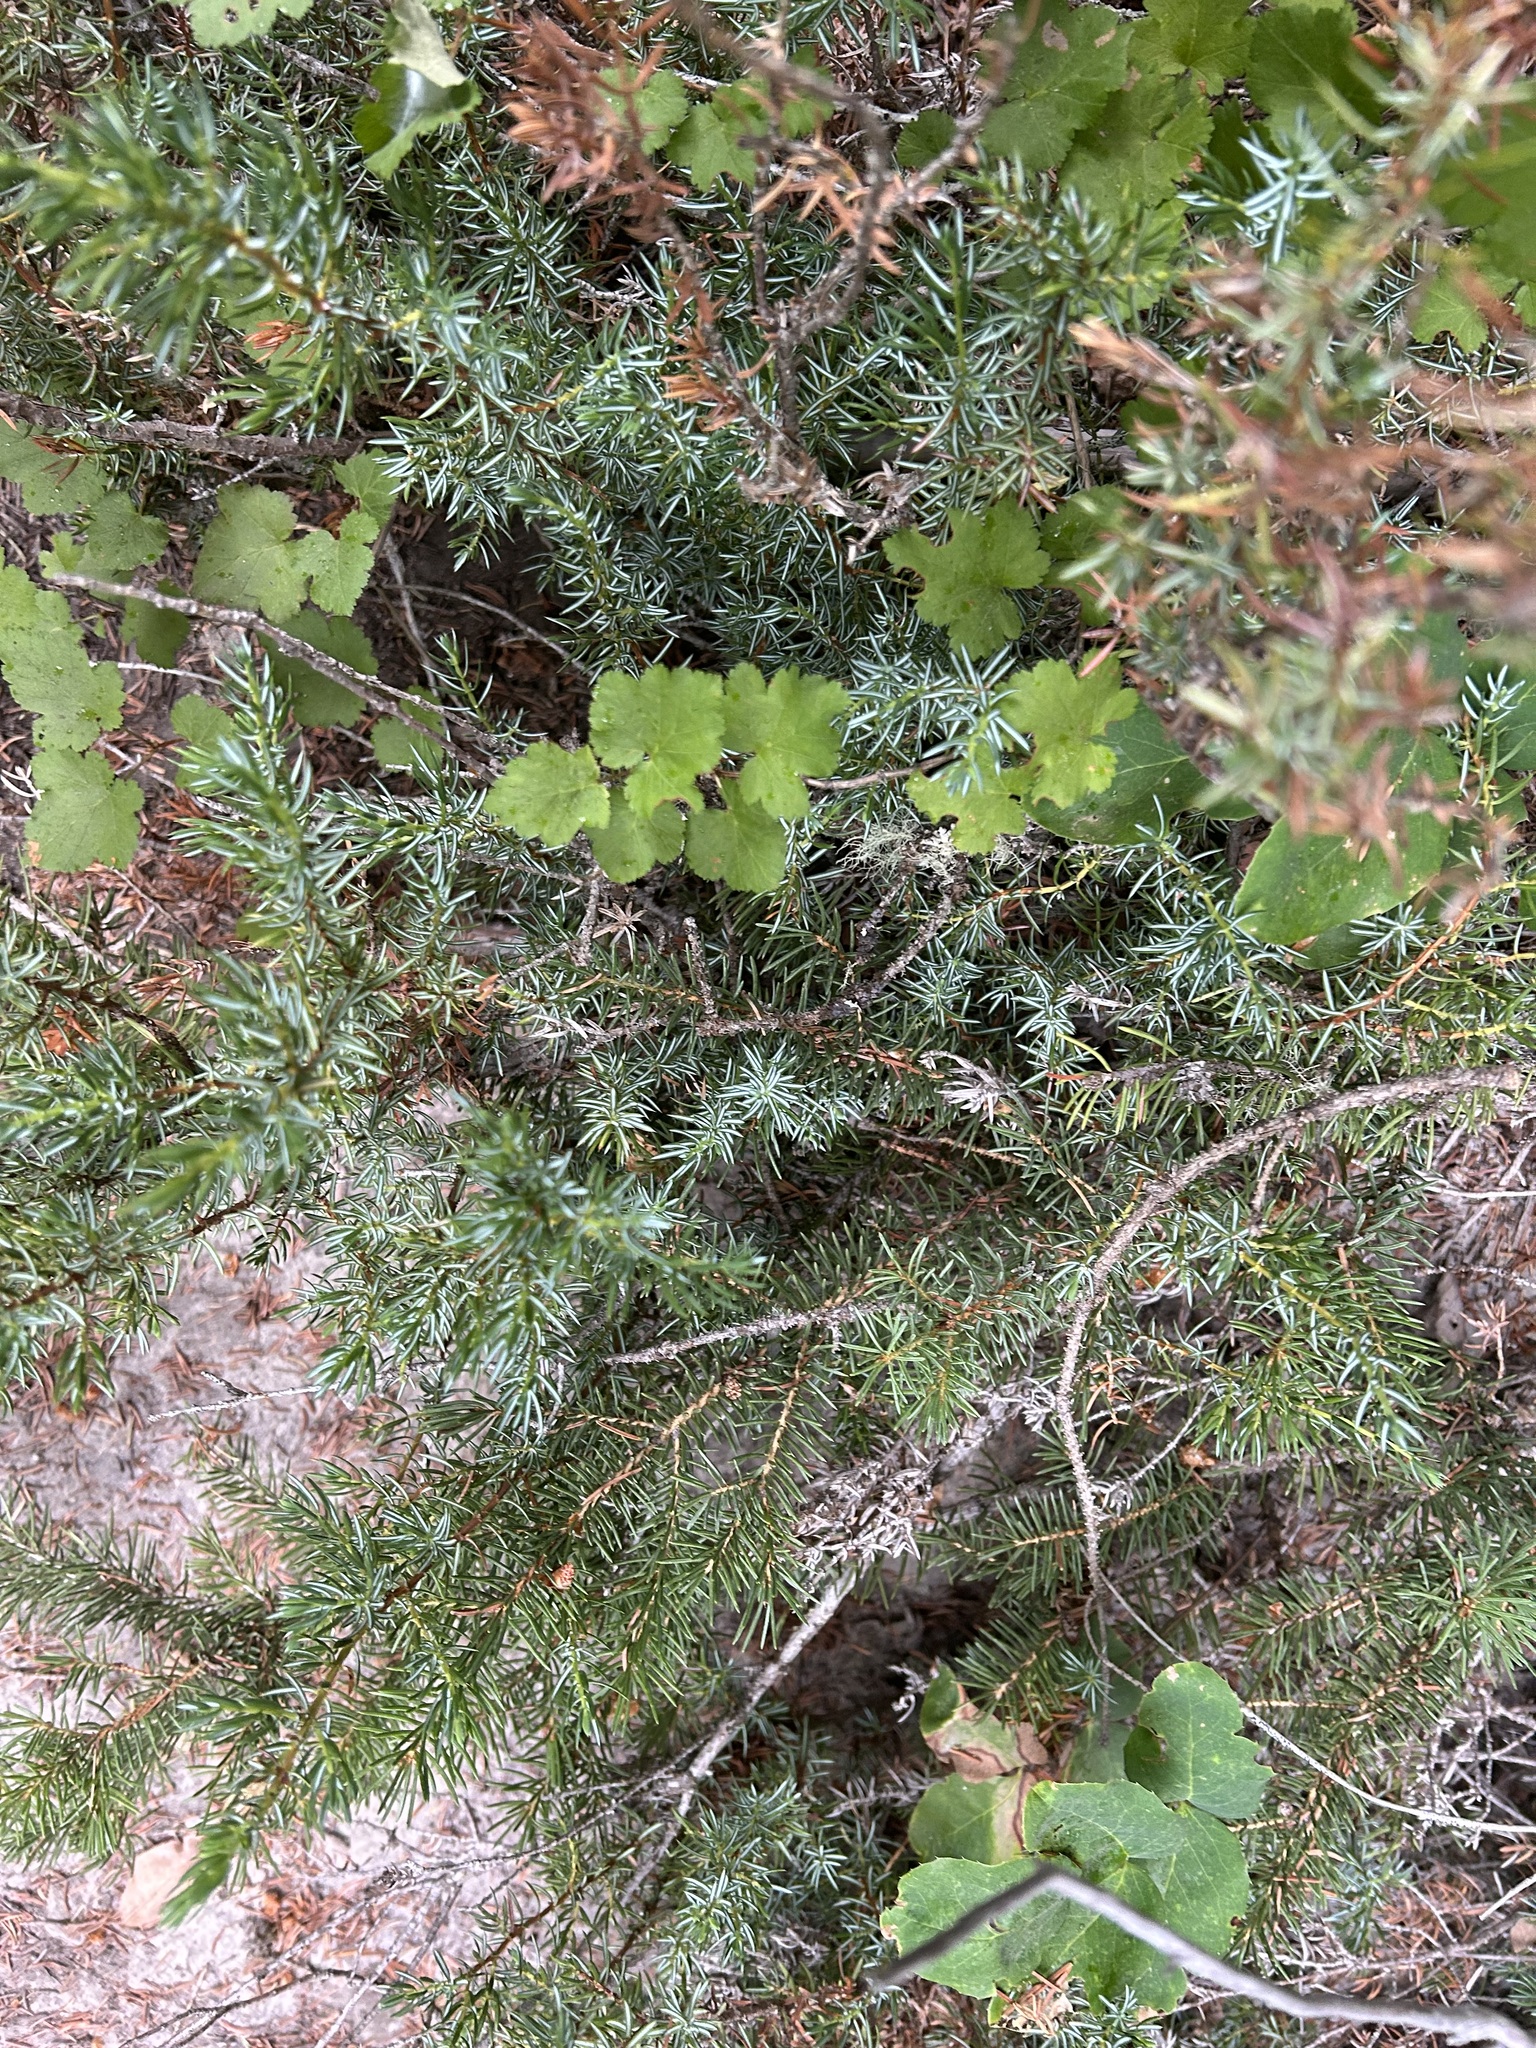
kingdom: Plantae
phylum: Tracheophyta
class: Pinopsida
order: Pinales
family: Cupressaceae
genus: Juniperus
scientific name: Juniperus communis
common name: Common juniper
